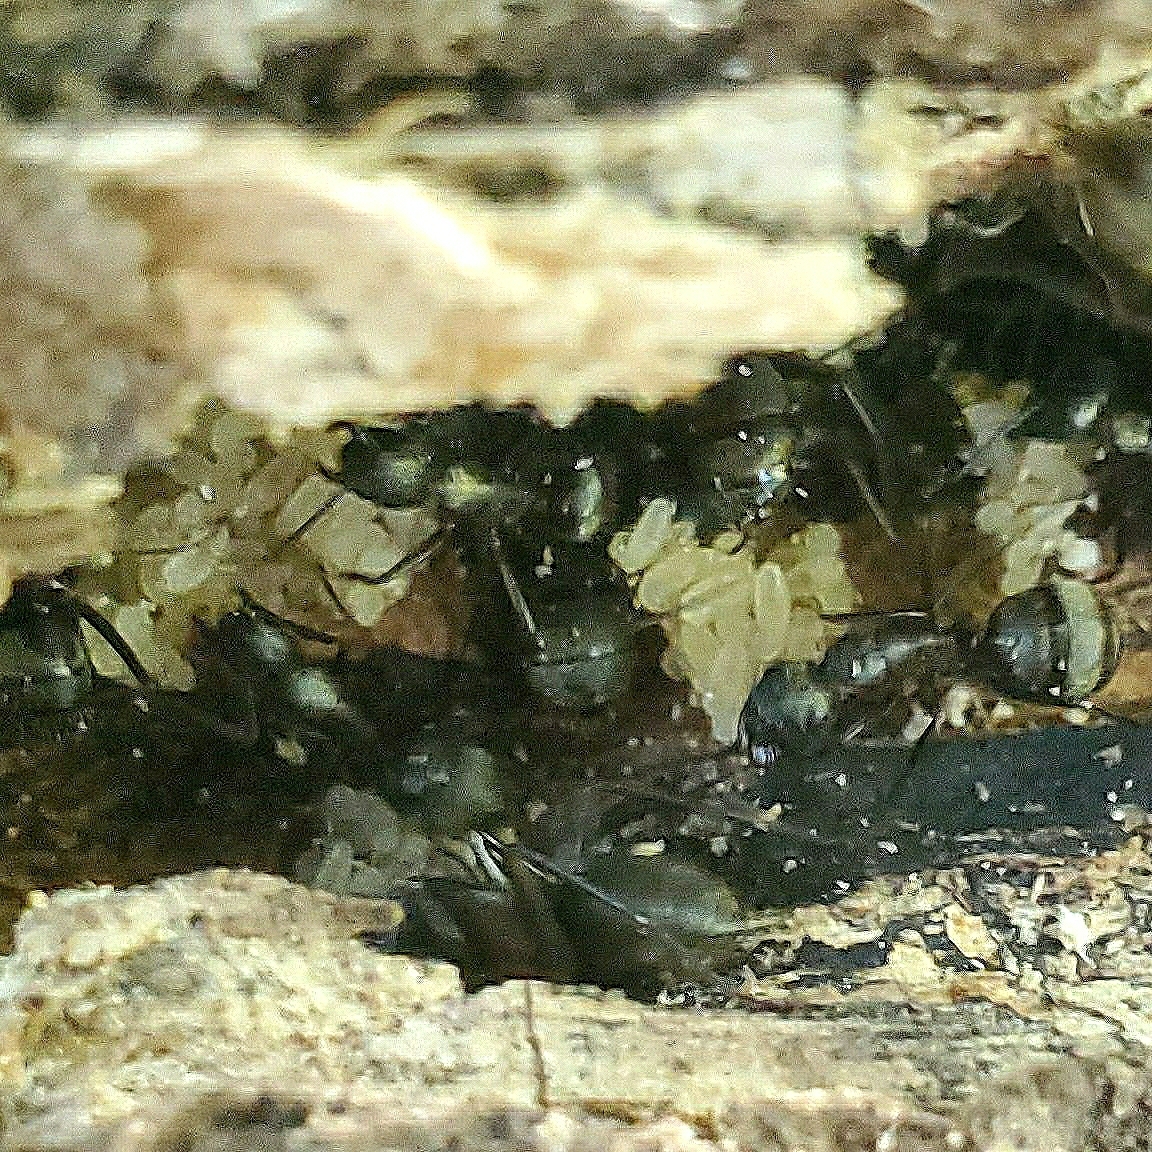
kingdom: Animalia
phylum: Arthropoda
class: Insecta
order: Hymenoptera
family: Formicidae
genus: Camponotus
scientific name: Camponotus chromaiodes
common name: Red carpenter ant
